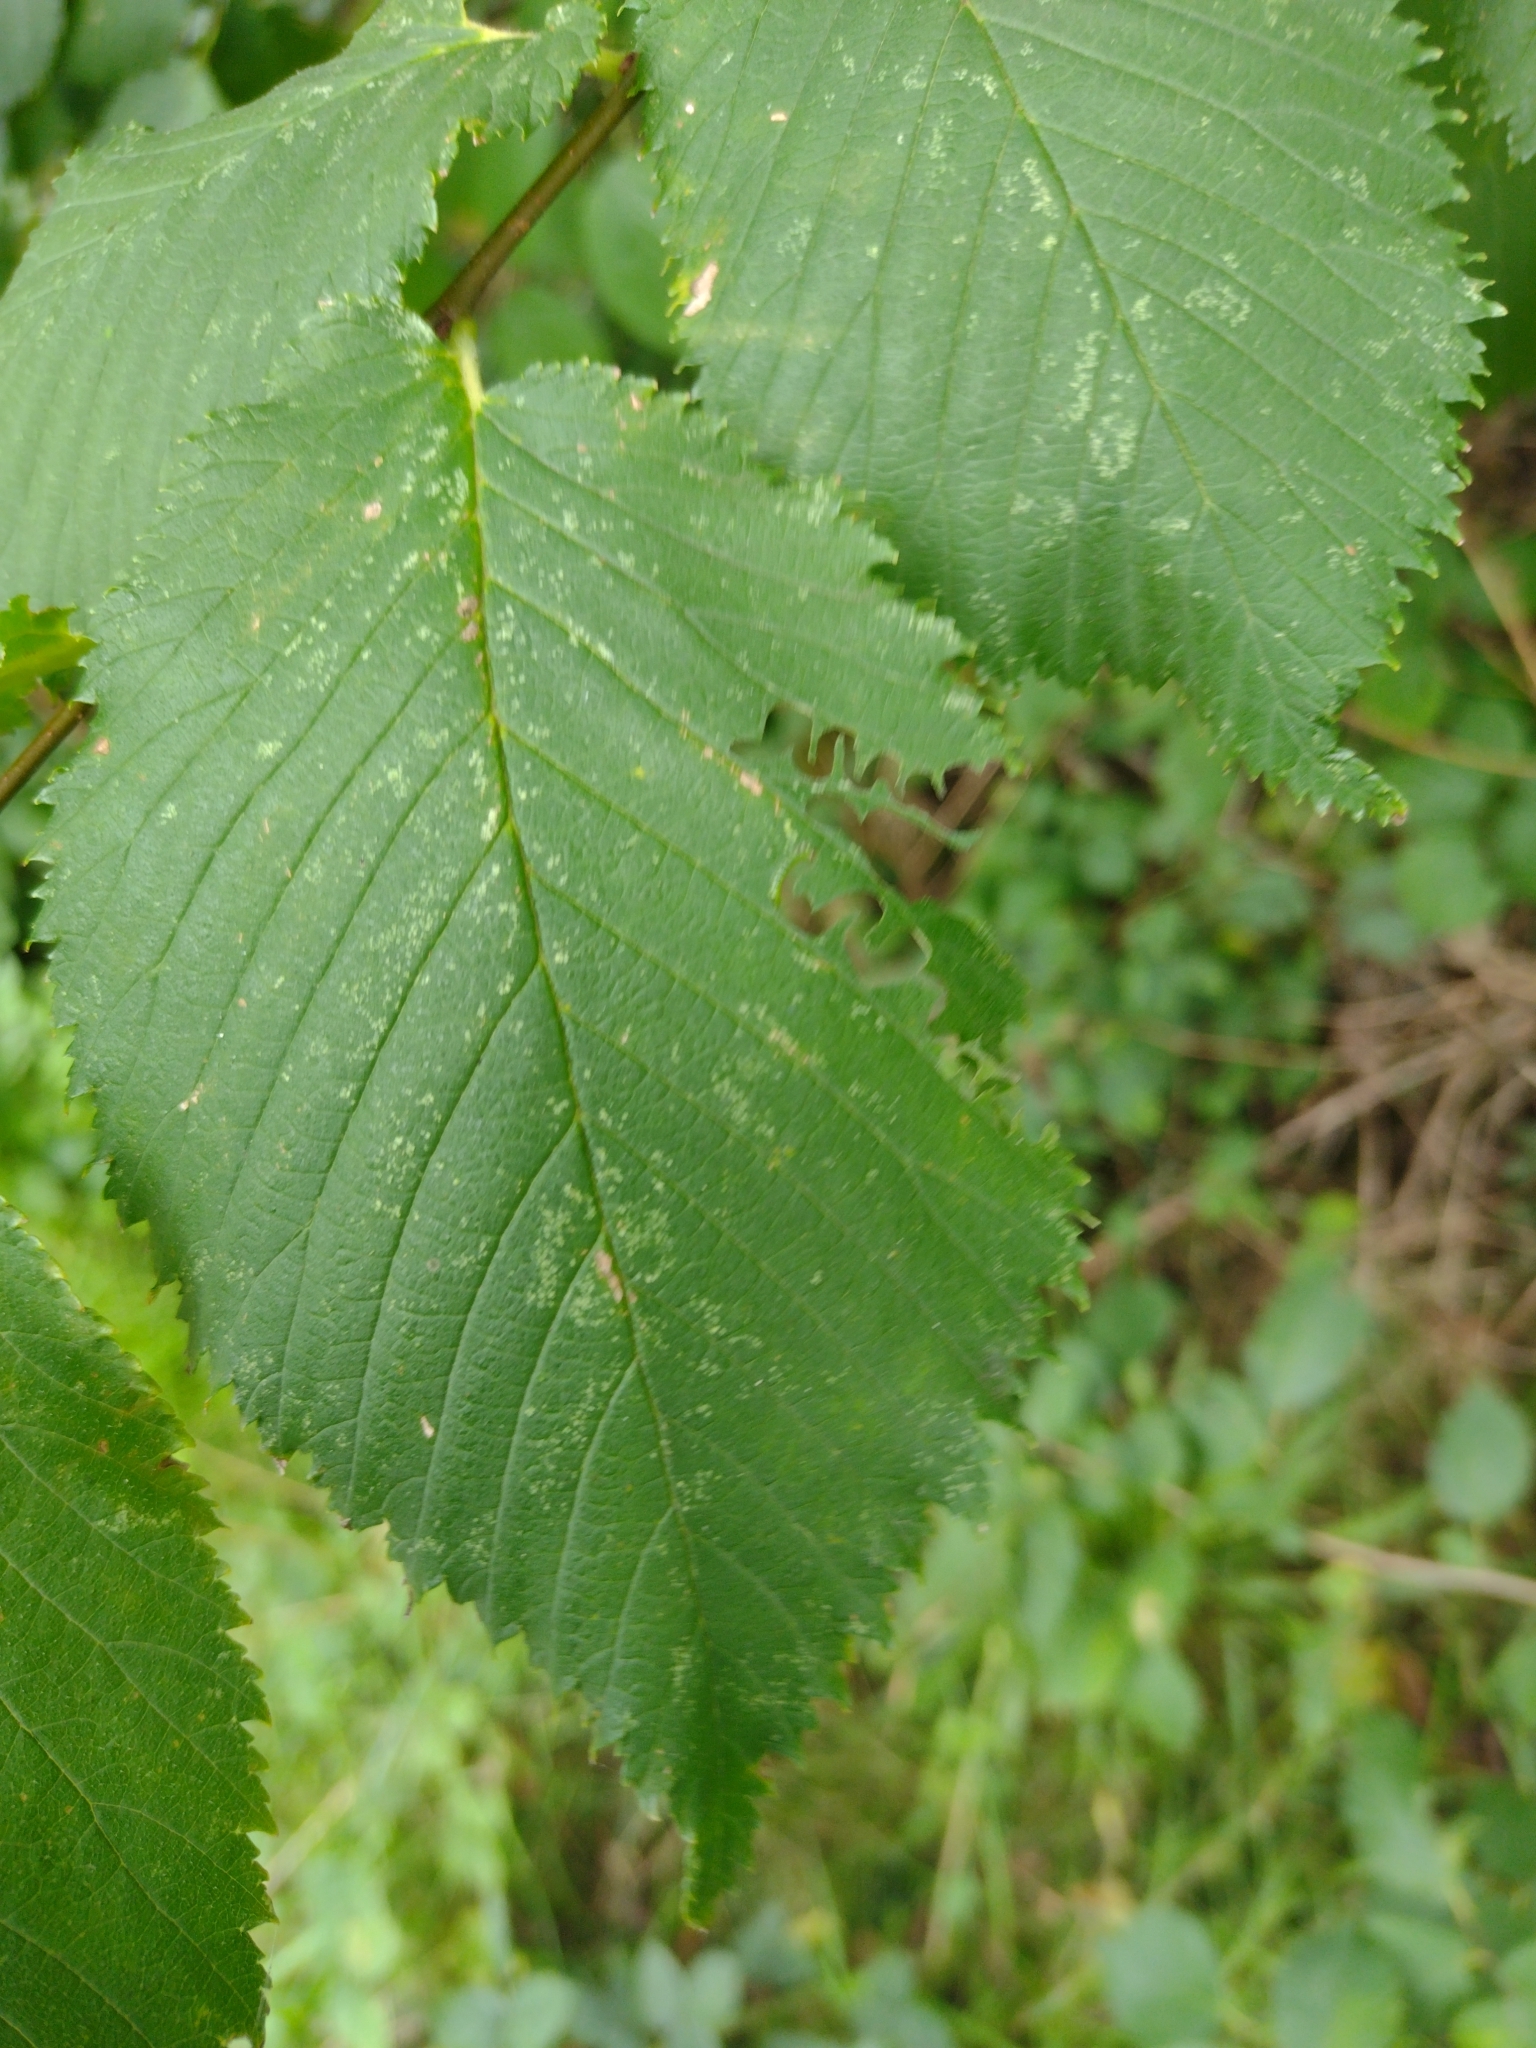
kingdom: Animalia
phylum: Arthropoda
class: Insecta
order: Hymenoptera
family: Argidae
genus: Aproceros
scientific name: Aproceros leucopoda
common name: Zig-zag elm sawfly
